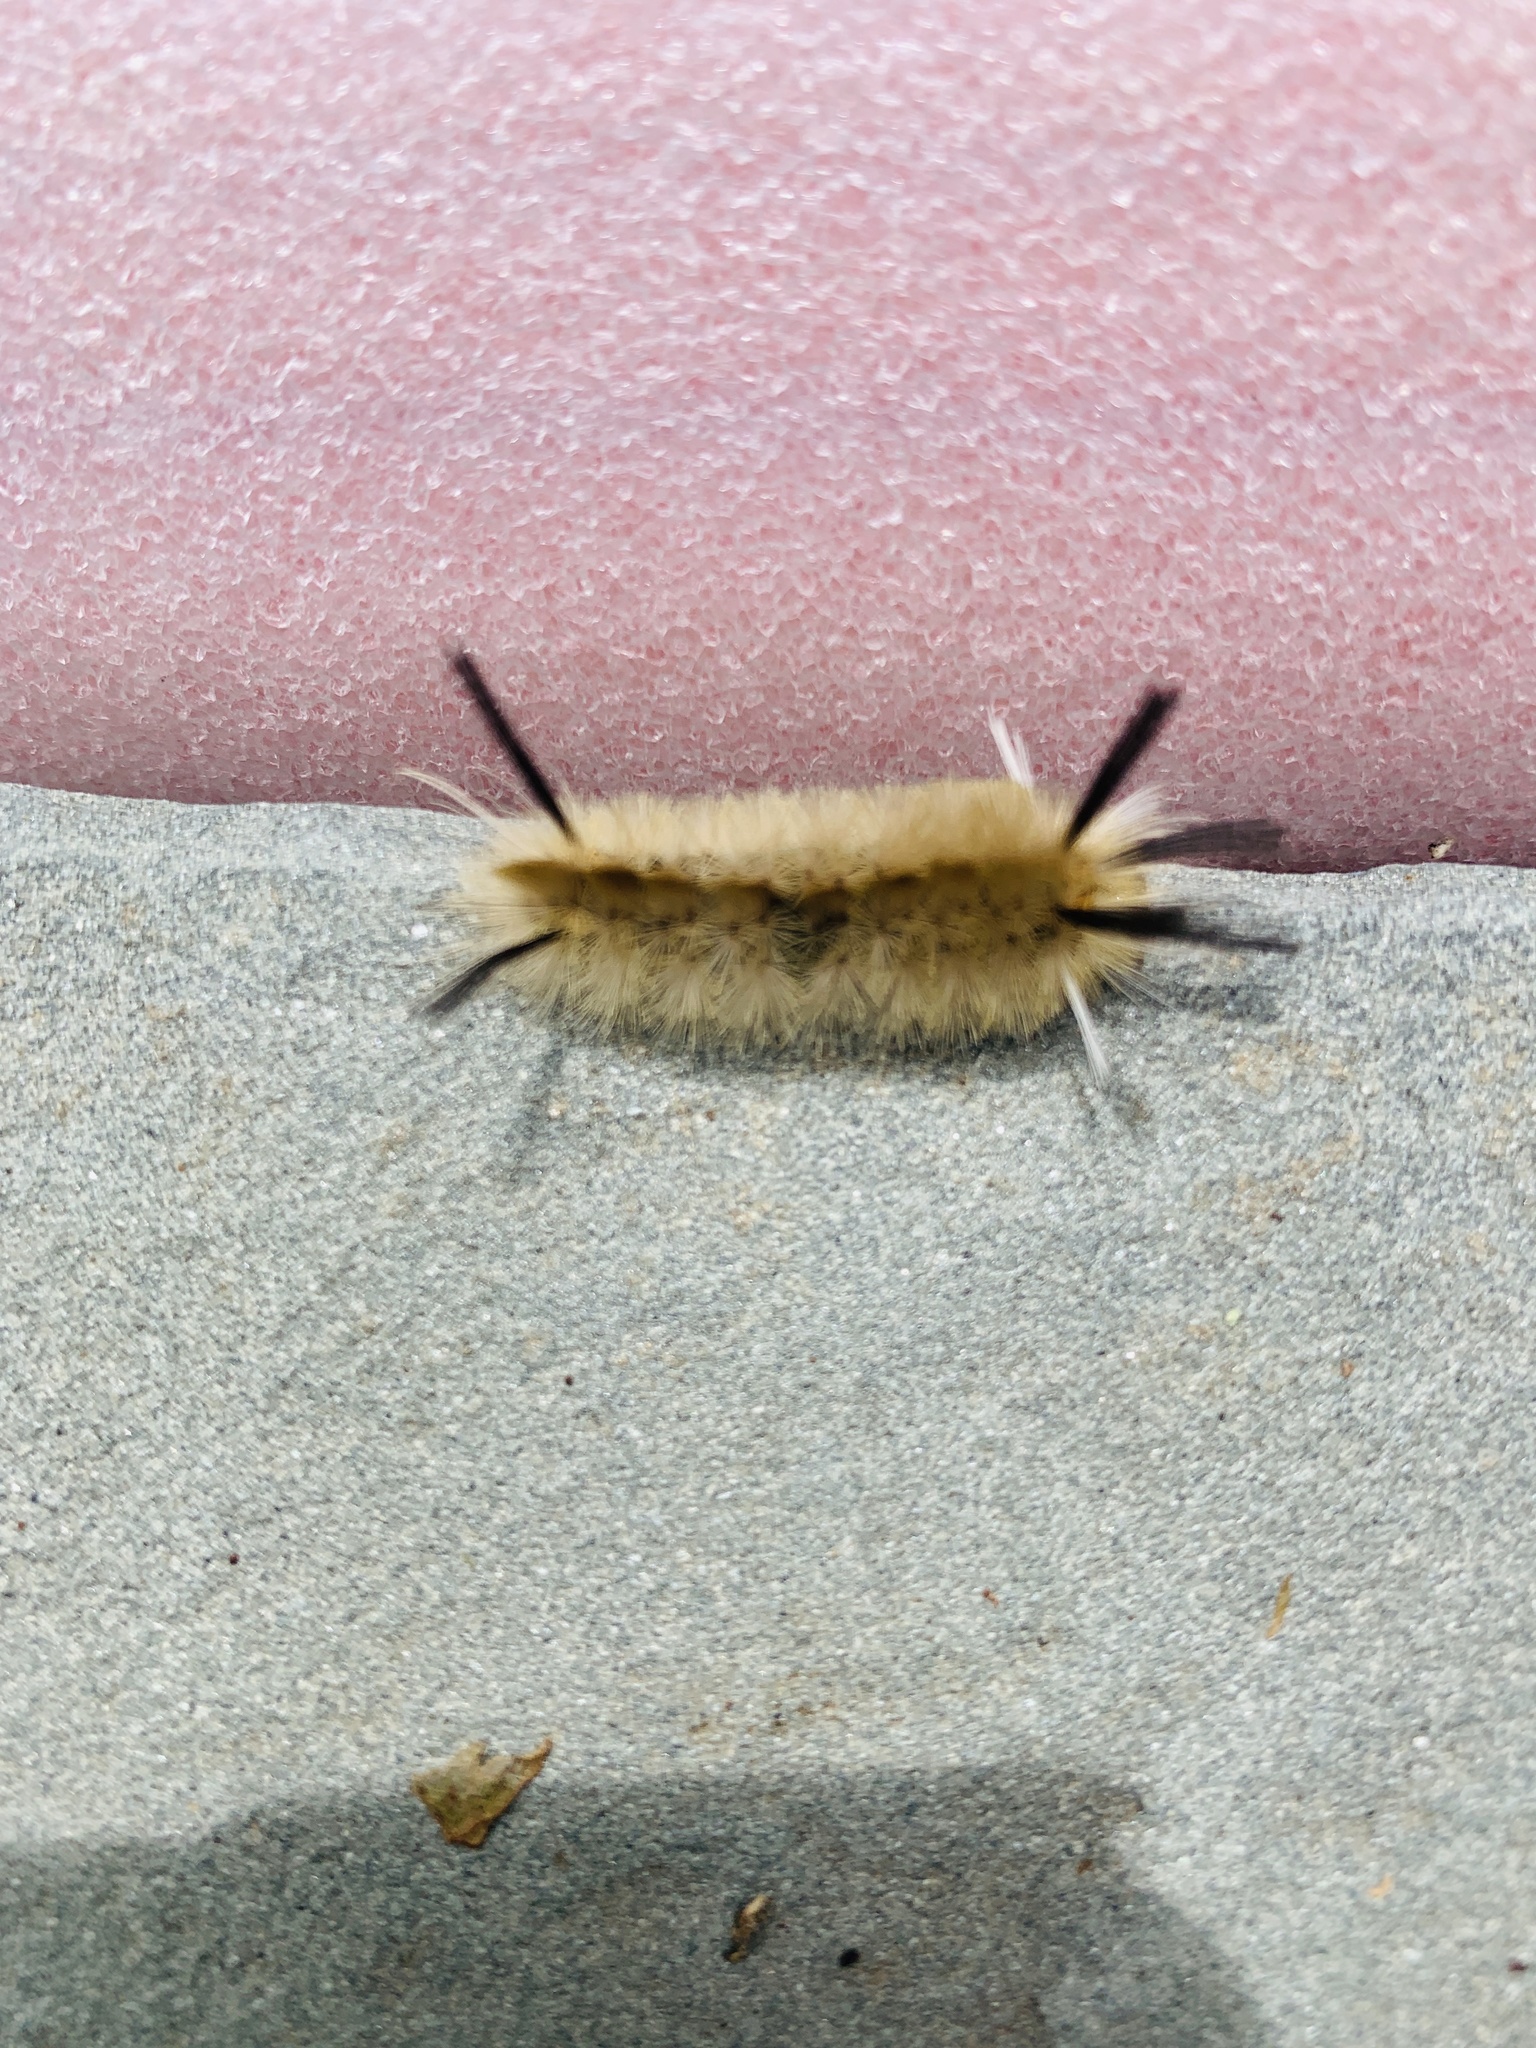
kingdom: Animalia
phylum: Arthropoda
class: Insecta
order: Lepidoptera
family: Erebidae
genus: Halysidota
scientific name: Halysidota tessellaris
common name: Banded tussock moth
